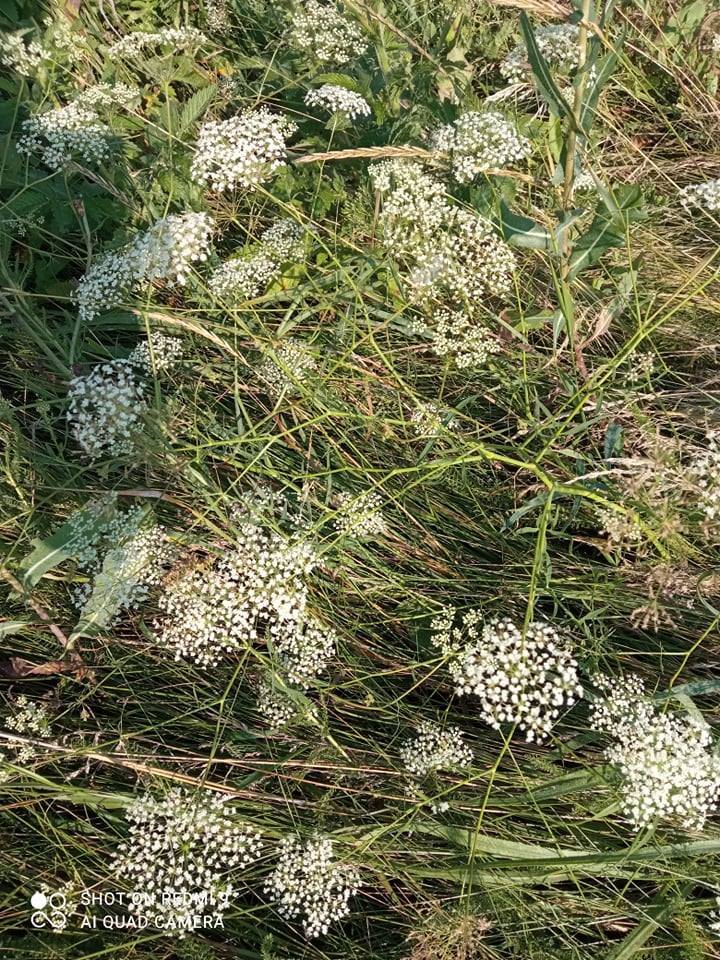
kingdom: Plantae
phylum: Tracheophyta
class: Magnoliopsida
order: Apiales
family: Apiaceae
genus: Falcaria
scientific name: Falcaria vulgaris
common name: Longleaf
